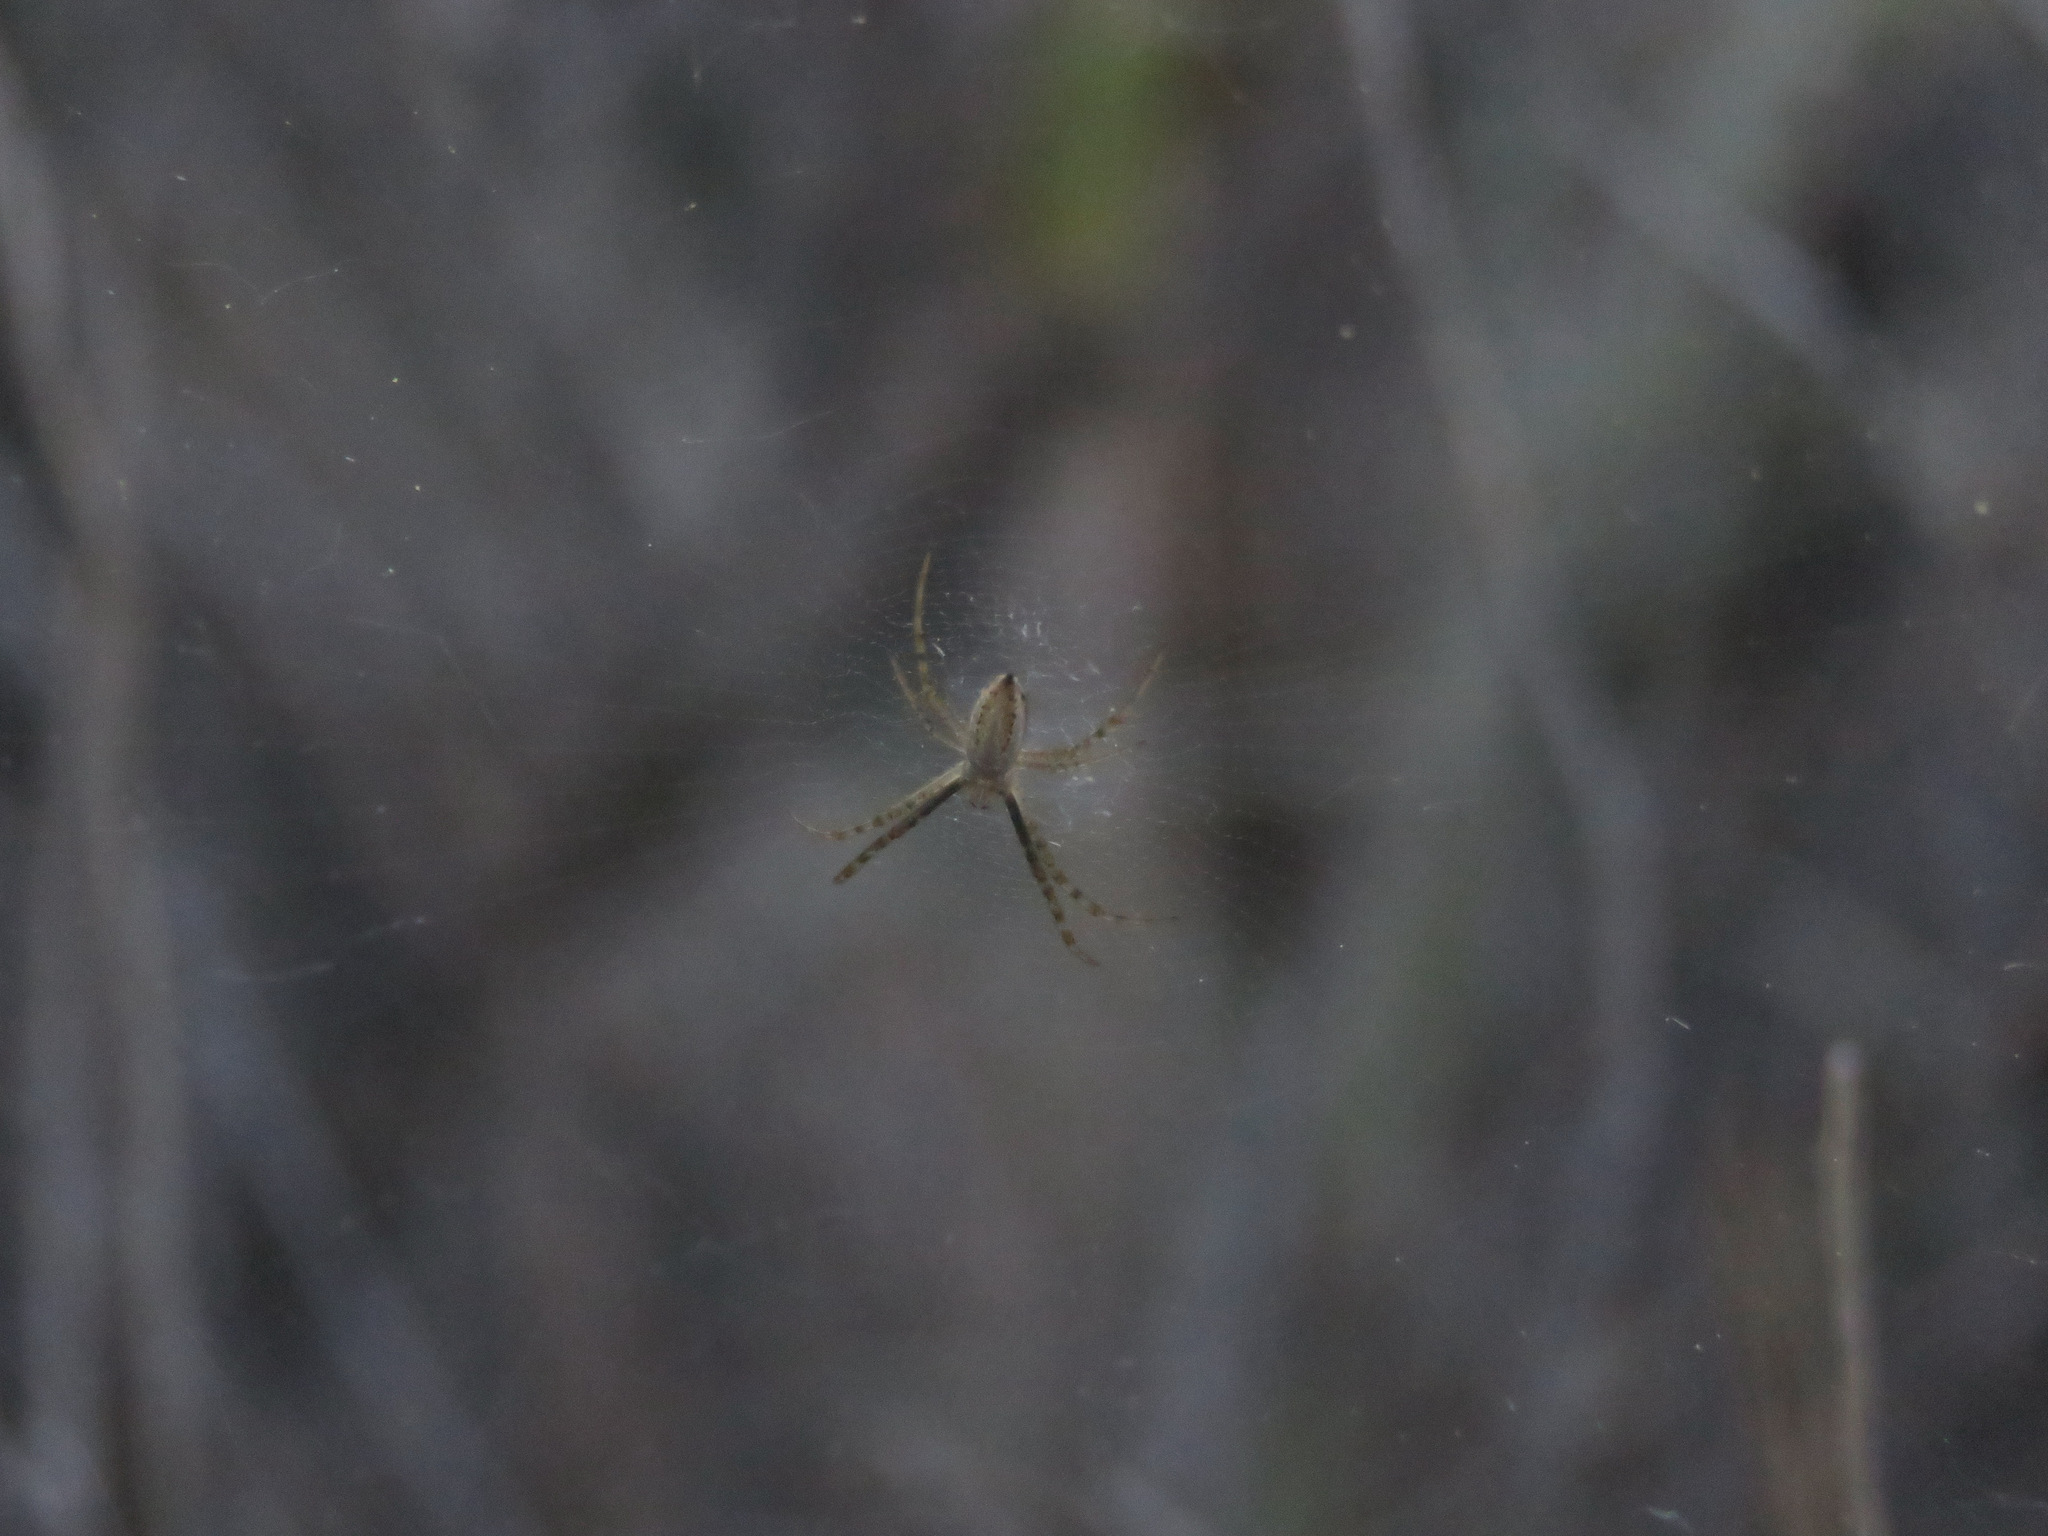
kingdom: Animalia
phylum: Arthropoda
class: Arachnida
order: Araneae
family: Araneidae
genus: Argiope
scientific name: Argiope trifasciata
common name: Banded garden spider
